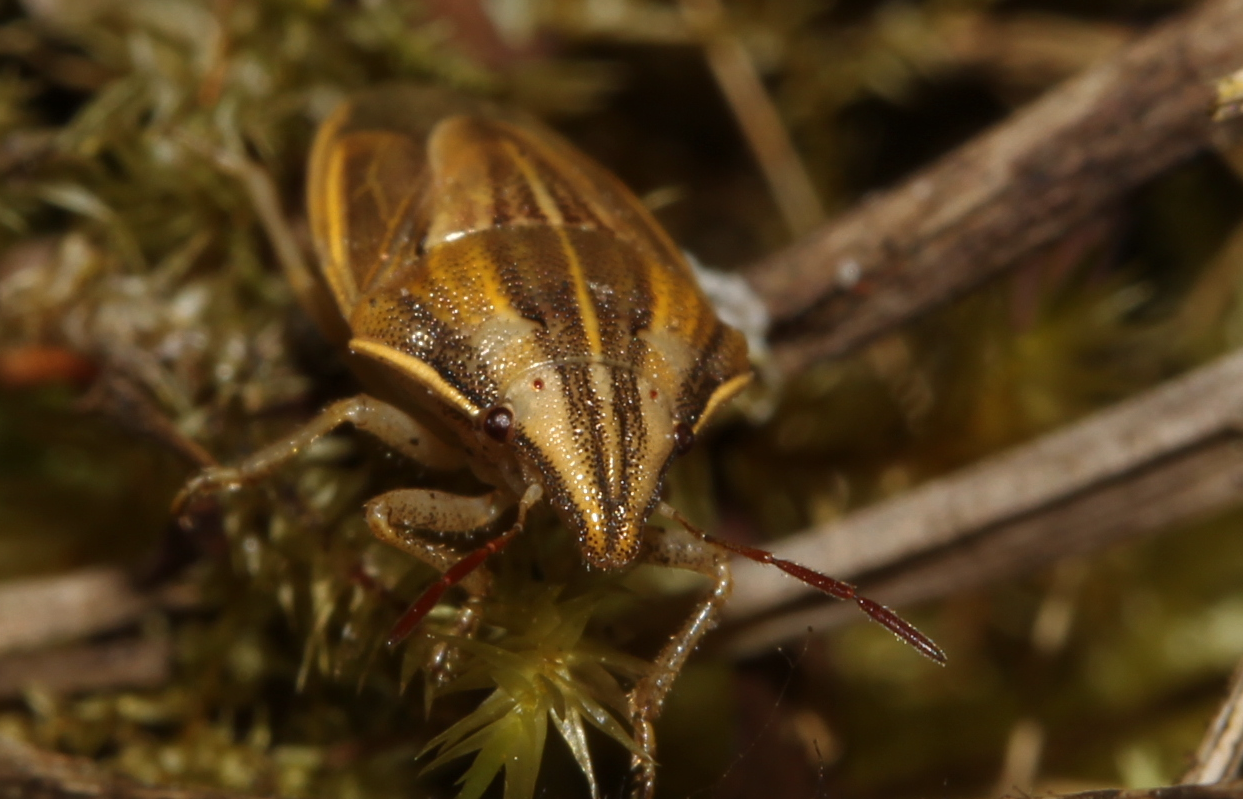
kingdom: Animalia
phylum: Arthropoda
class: Insecta
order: Hemiptera
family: Pentatomidae
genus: Aelia
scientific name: Aelia acuminata
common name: Bishop's mitre
